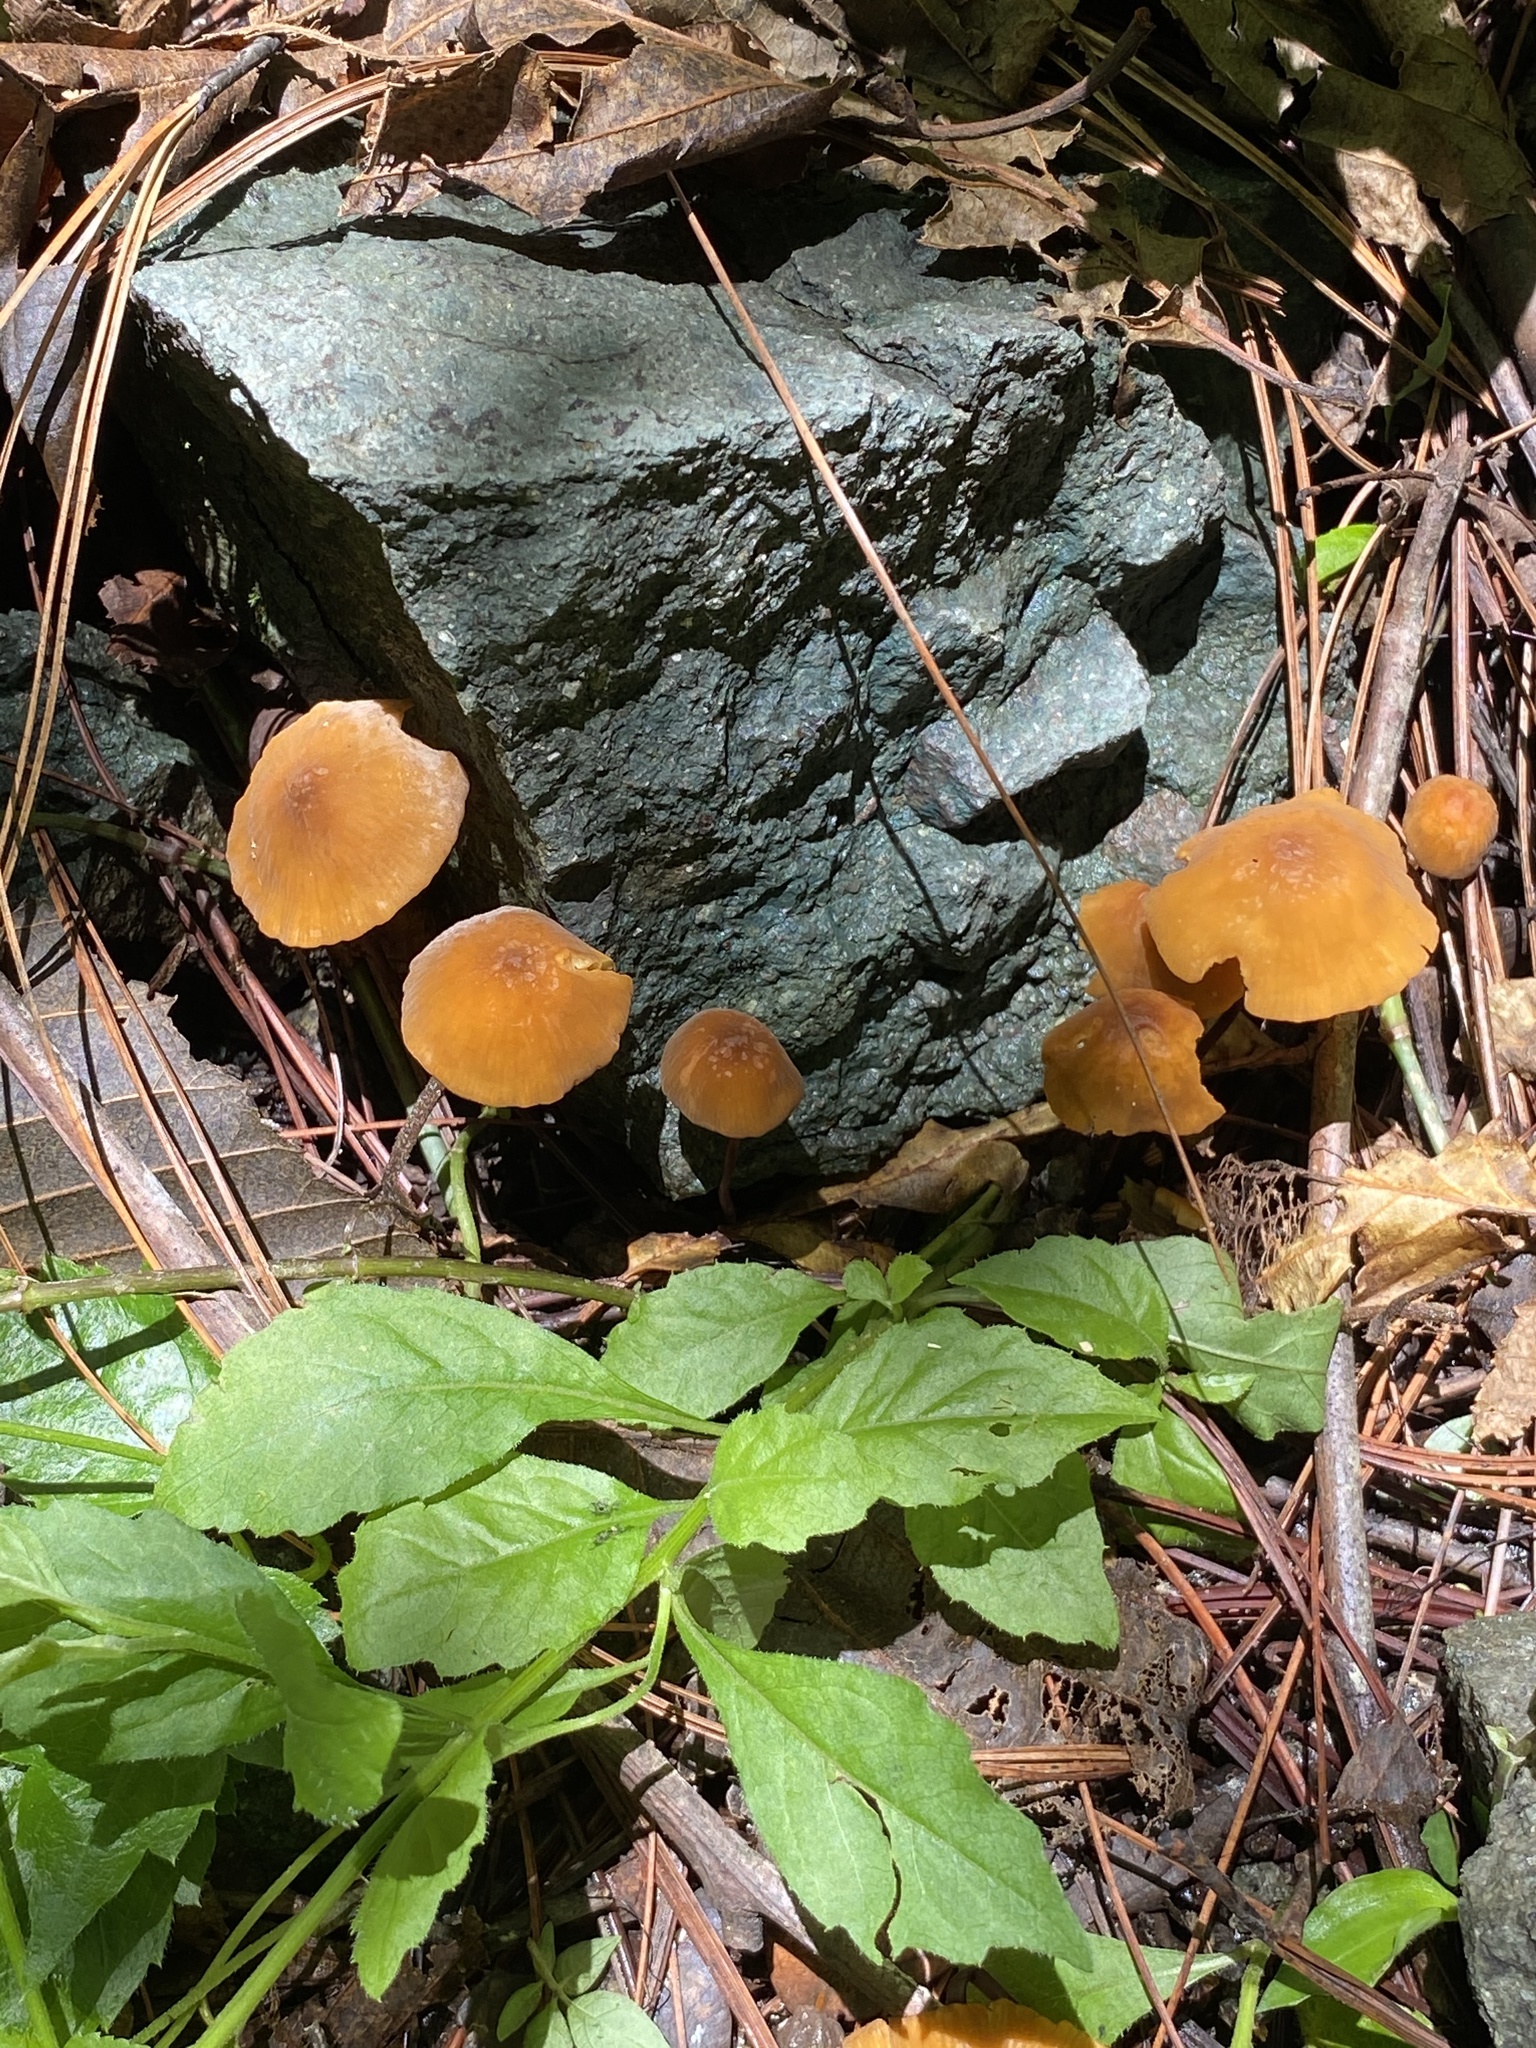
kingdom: Fungi
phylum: Basidiomycota
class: Agaricomycetes
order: Agaricales
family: Mycenaceae
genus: Xeromphalina
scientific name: Xeromphalina tenuipes
